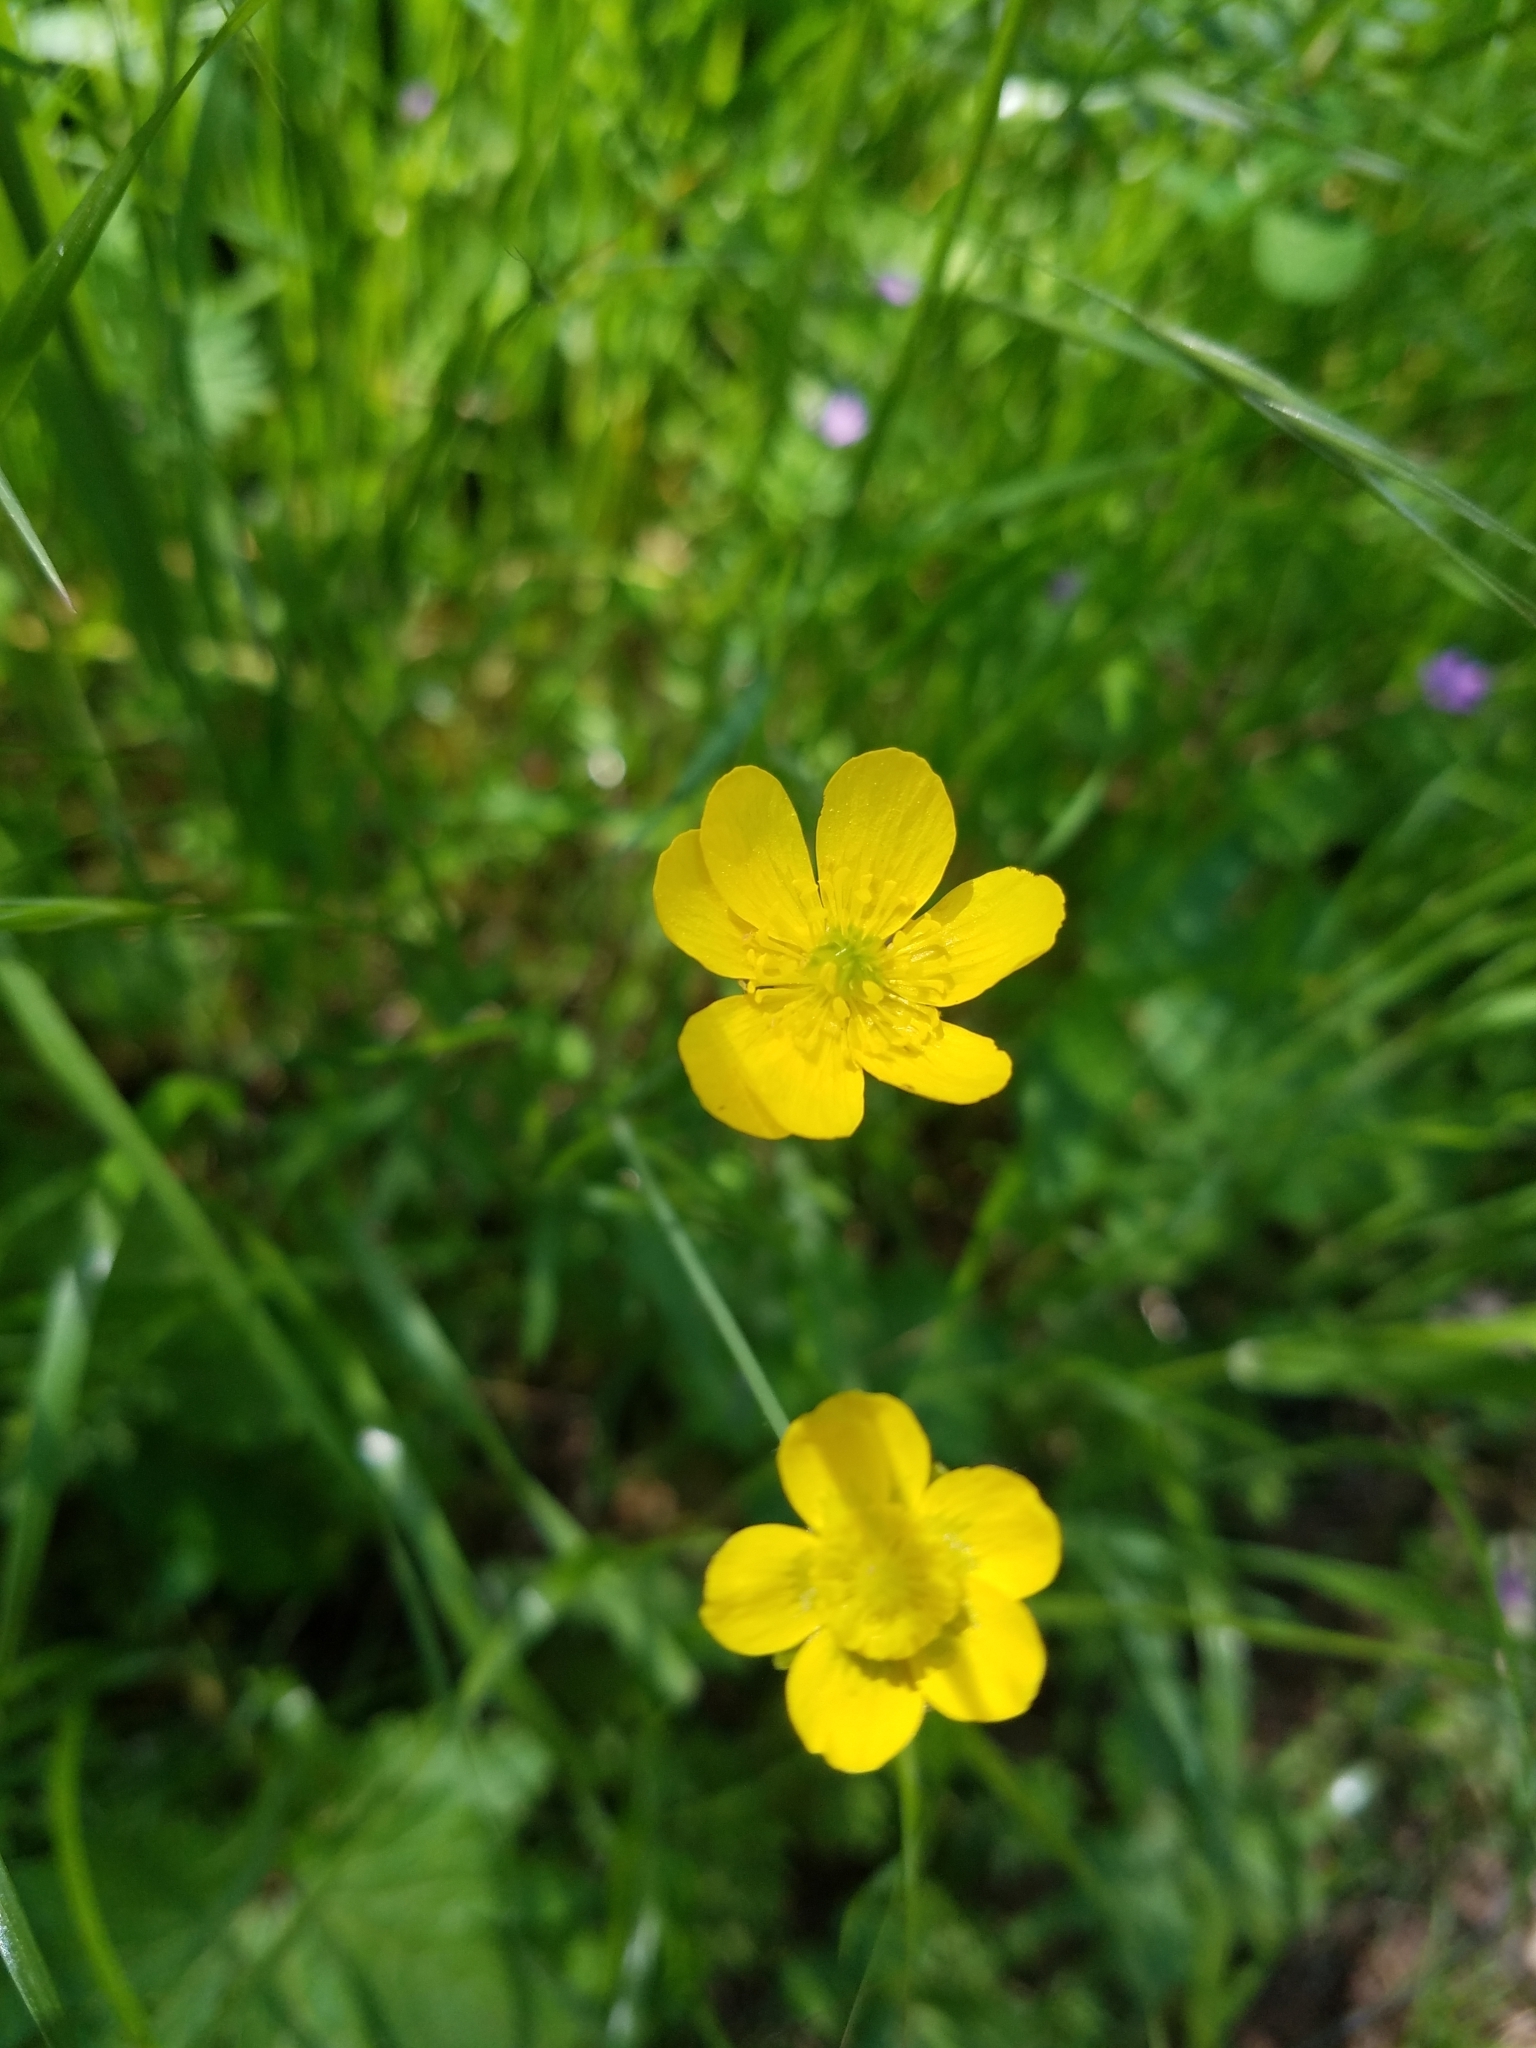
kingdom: Plantae
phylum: Tracheophyta
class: Magnoliopsida
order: Ranunculales
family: Ranunculaceae
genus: Ranunculus
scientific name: Ranunculus canus
